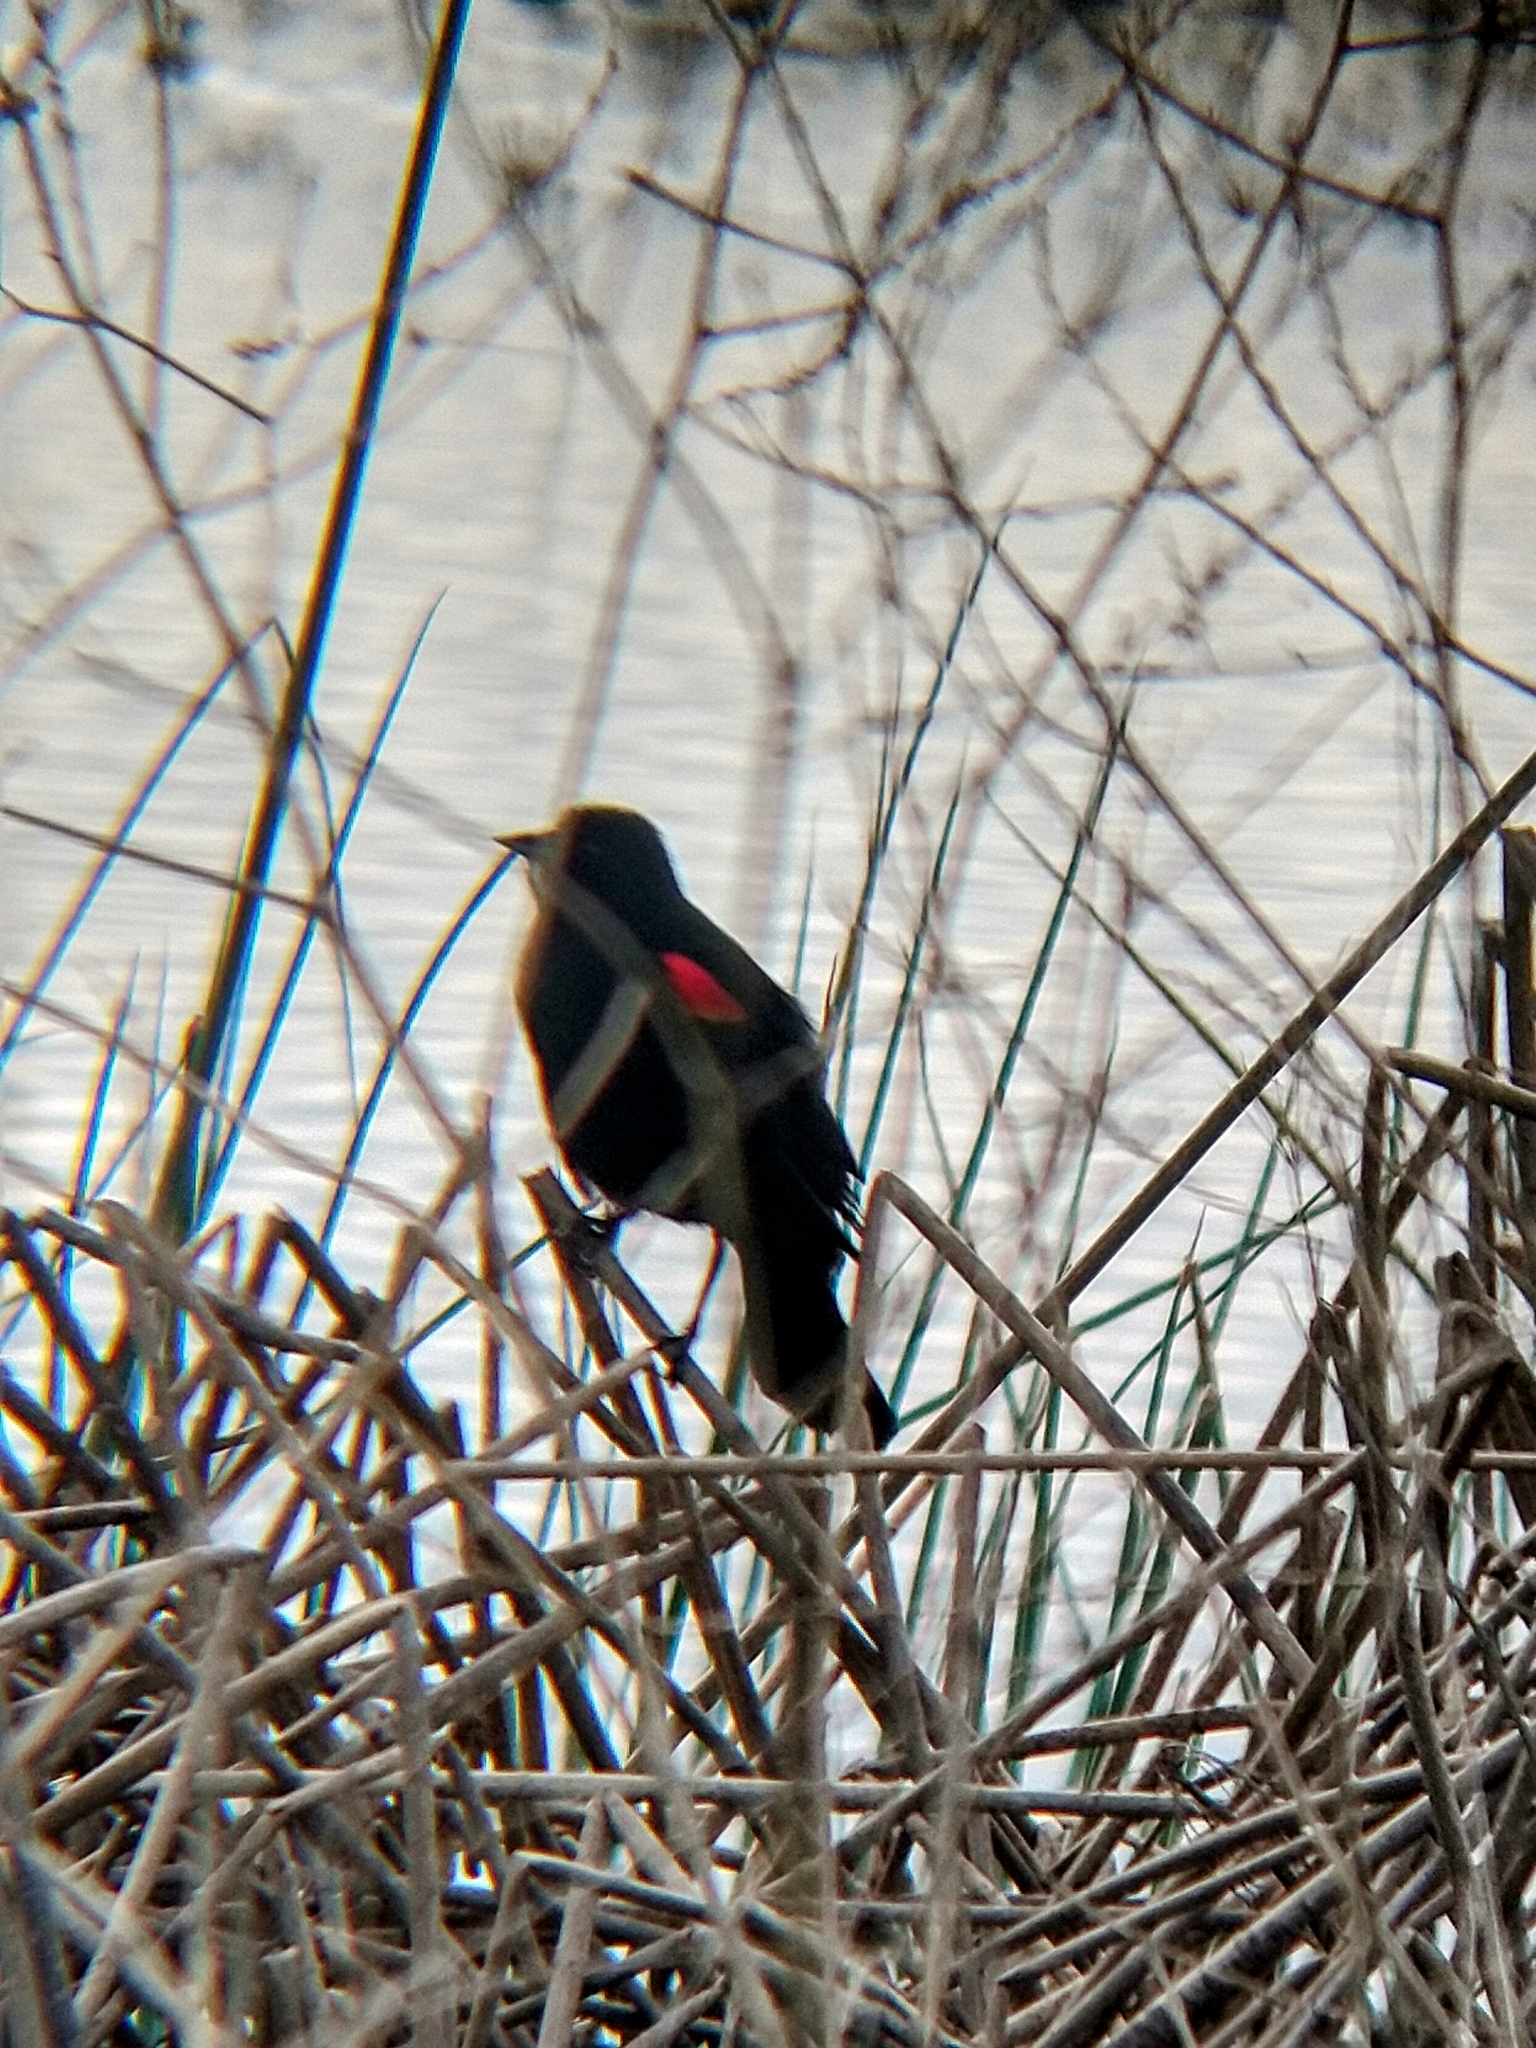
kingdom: Animalia
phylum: Chordata
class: Aves
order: Passeriformes
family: Icteridae
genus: Agelaius
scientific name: Agelaius phoeniceus
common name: Red-winged blackbird
